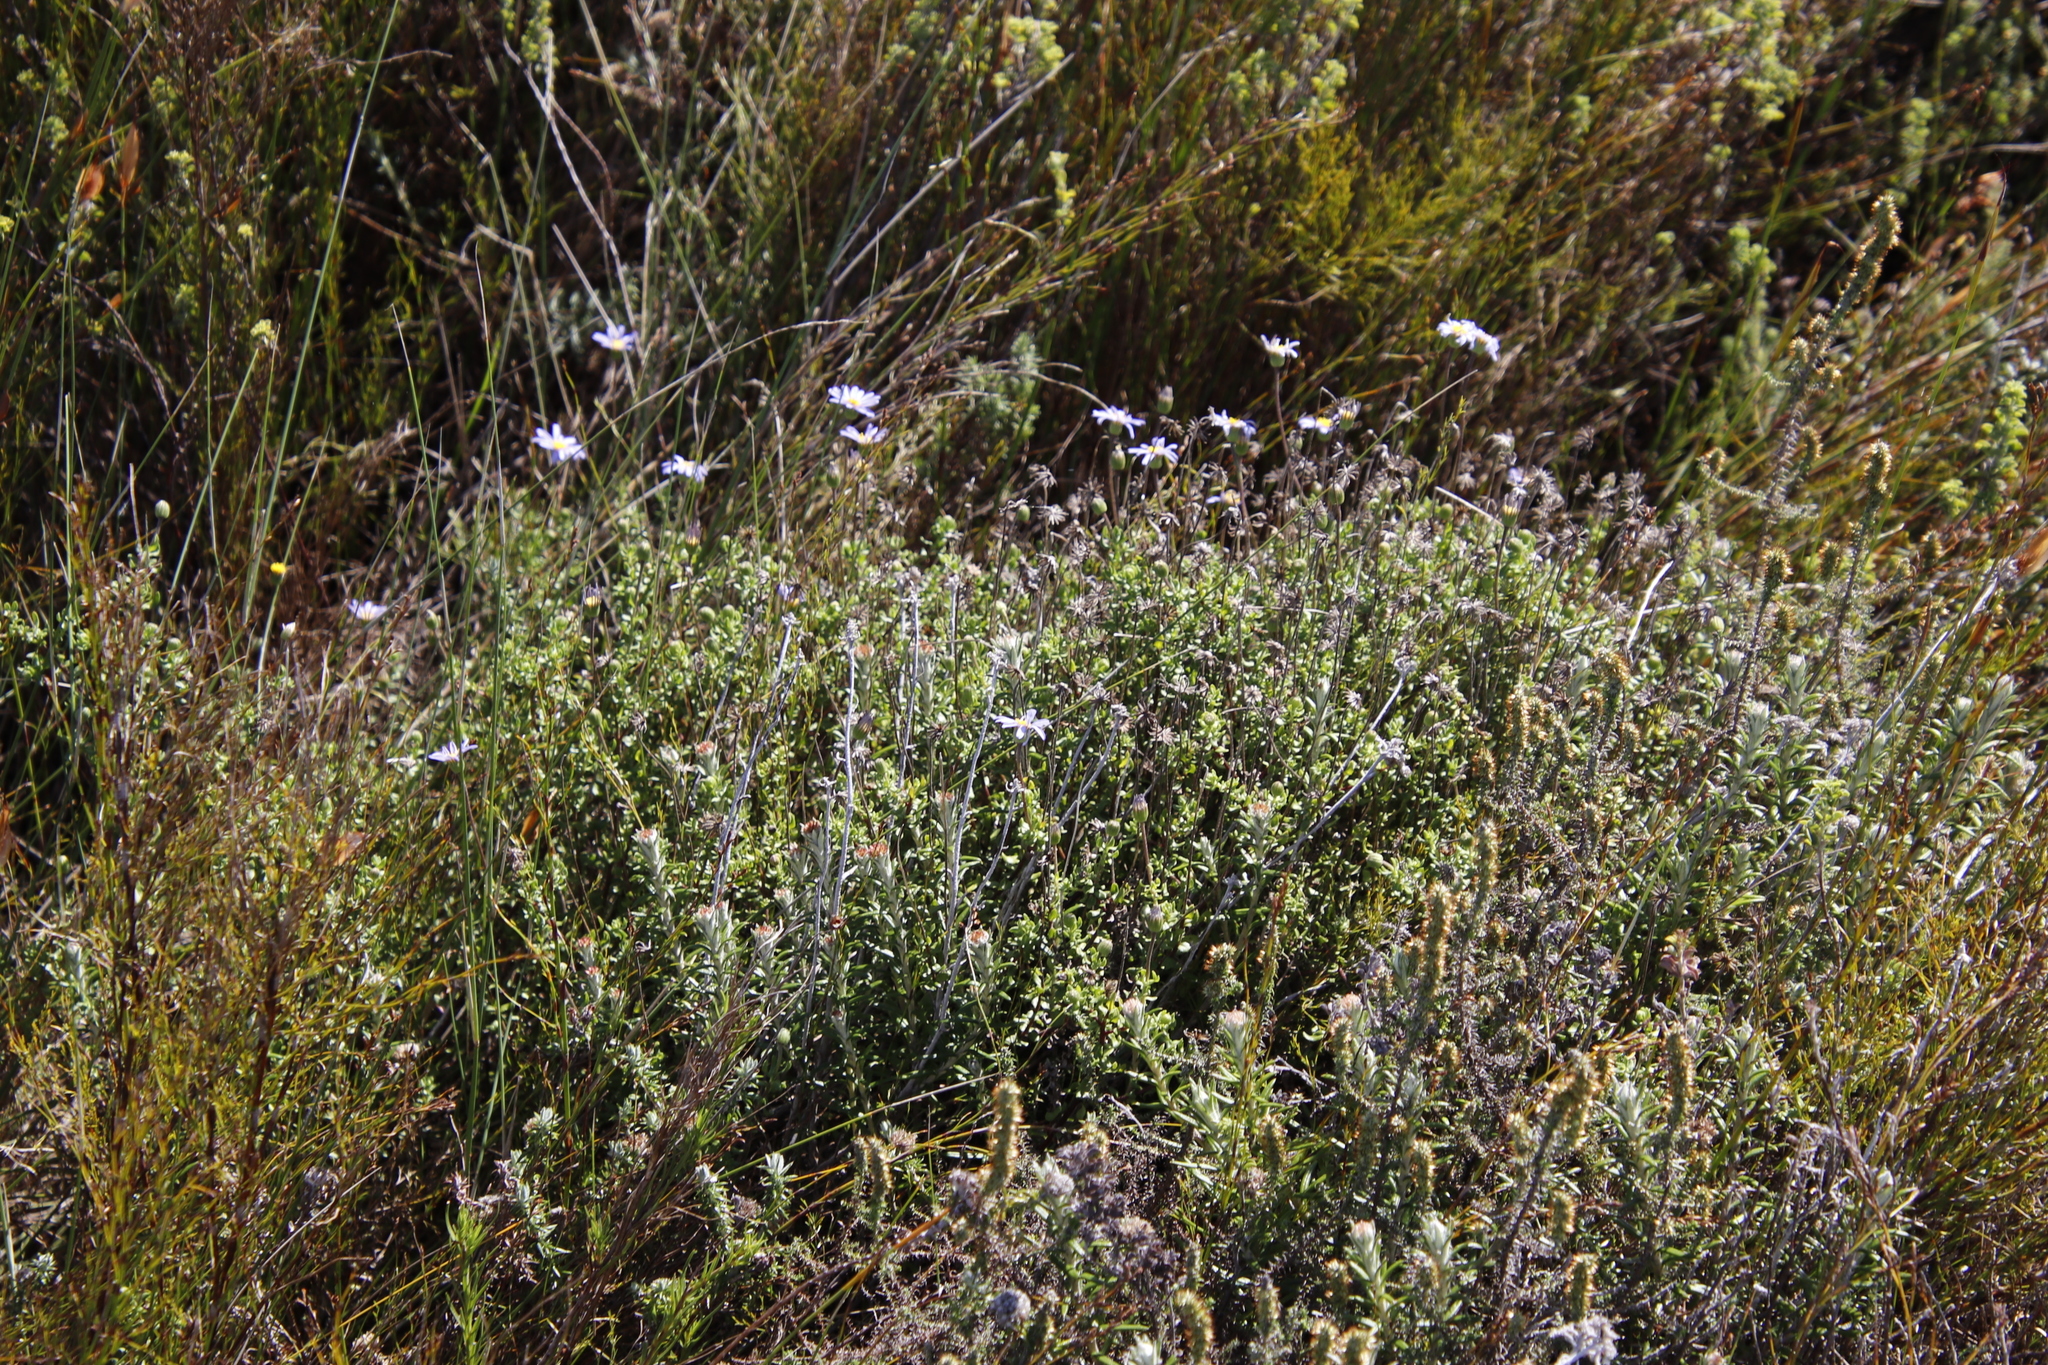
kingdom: Plantae
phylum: Tracheophyta
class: Magnoliopsida
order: Asterales
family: Asteraceae
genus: Felicia
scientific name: Felicia aethiopica
